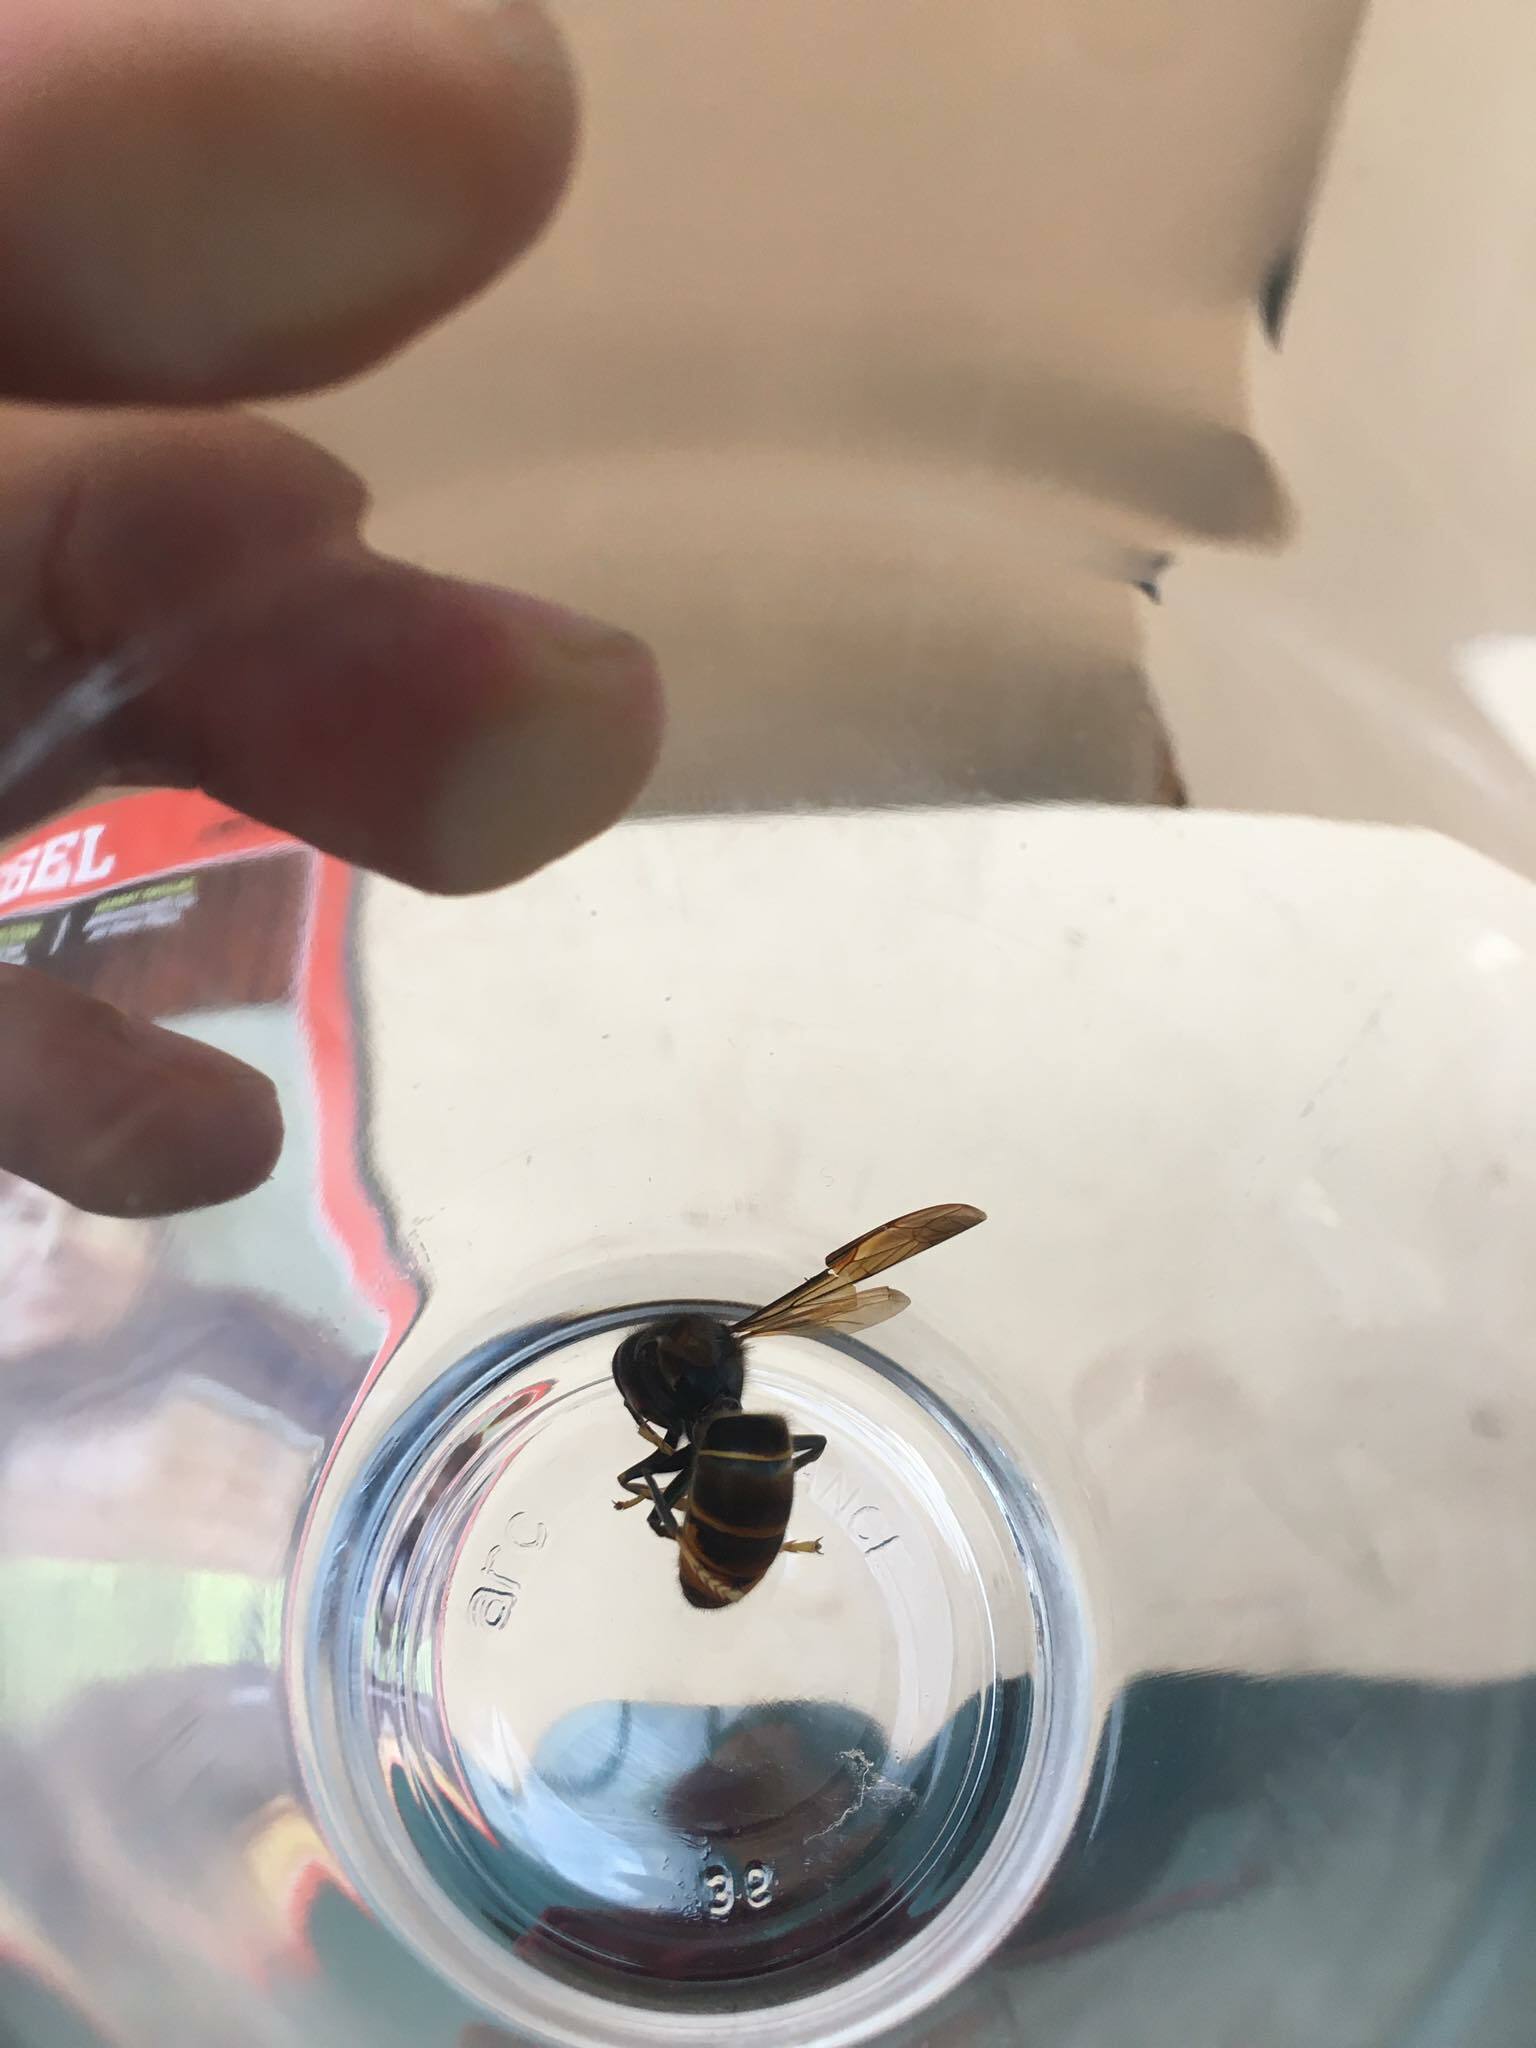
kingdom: Animalia
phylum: Arthropoda
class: Insecta
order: Hymenoptera
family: Vespidae
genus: Vespa
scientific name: Vespa velutina
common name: Asian hornet
